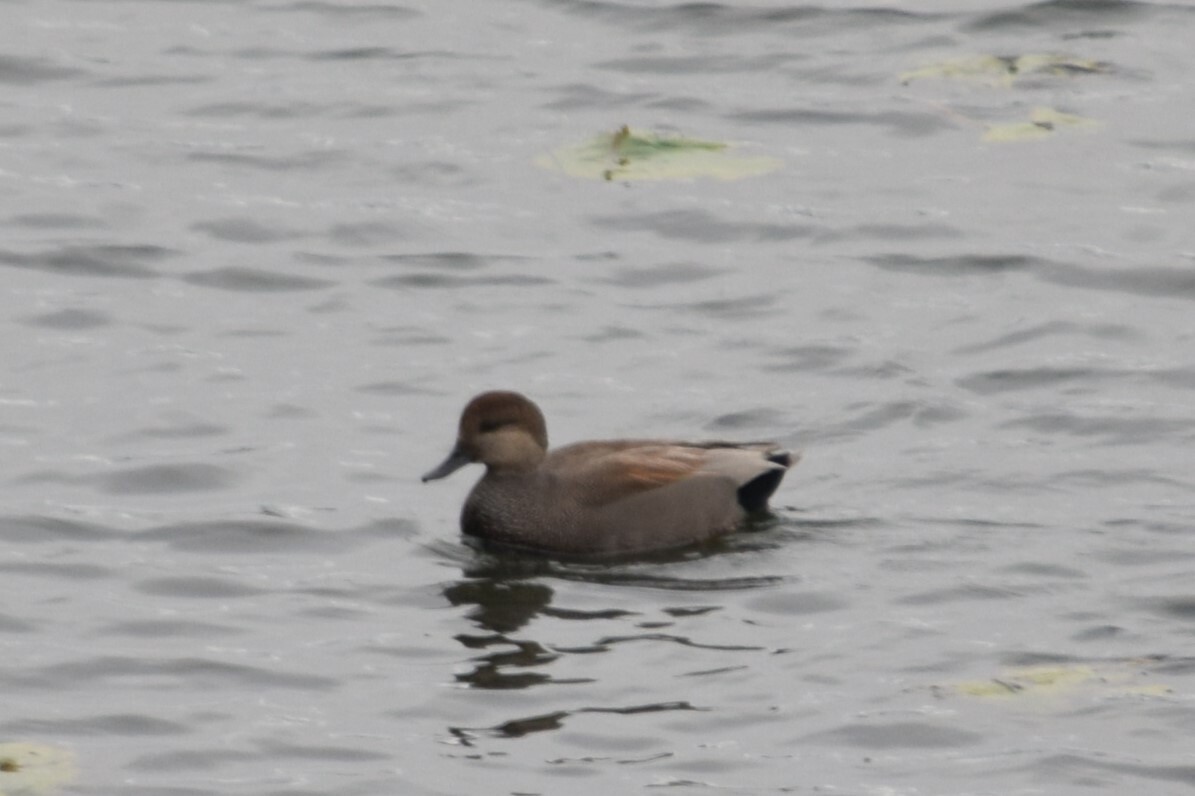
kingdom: Animalia
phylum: Chordata
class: Aves
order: Anseriformes
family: Anatidae
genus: Mareca
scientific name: Mareca strepera
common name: Gadwall
